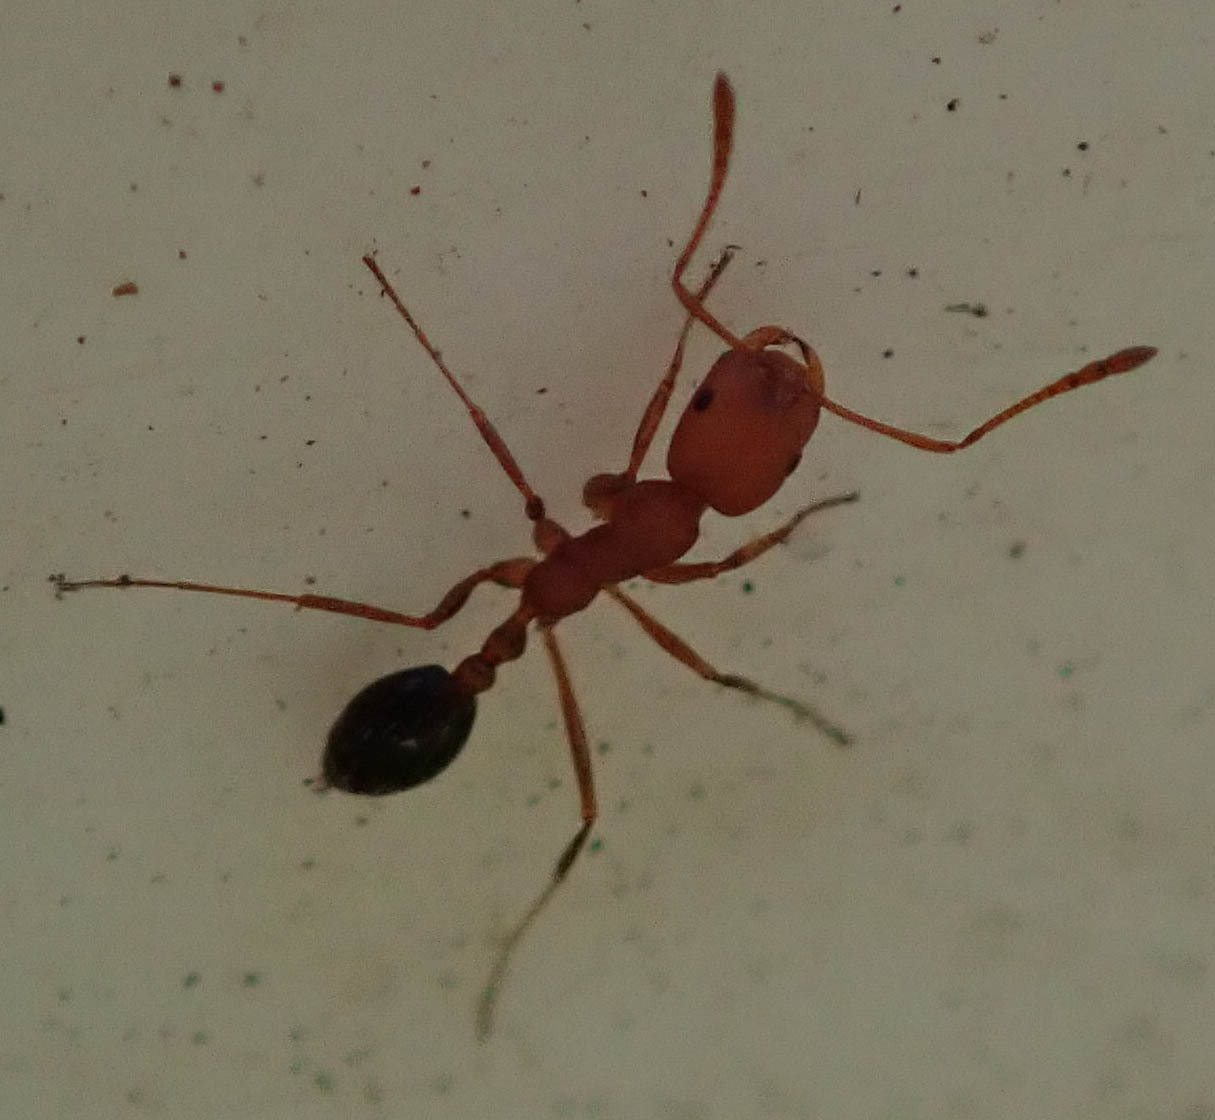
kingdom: Animalia
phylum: Arthropoda
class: Insecta
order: Hymenoptera
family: Formicidae
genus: Monomorium
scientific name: Monomorium rufulum
